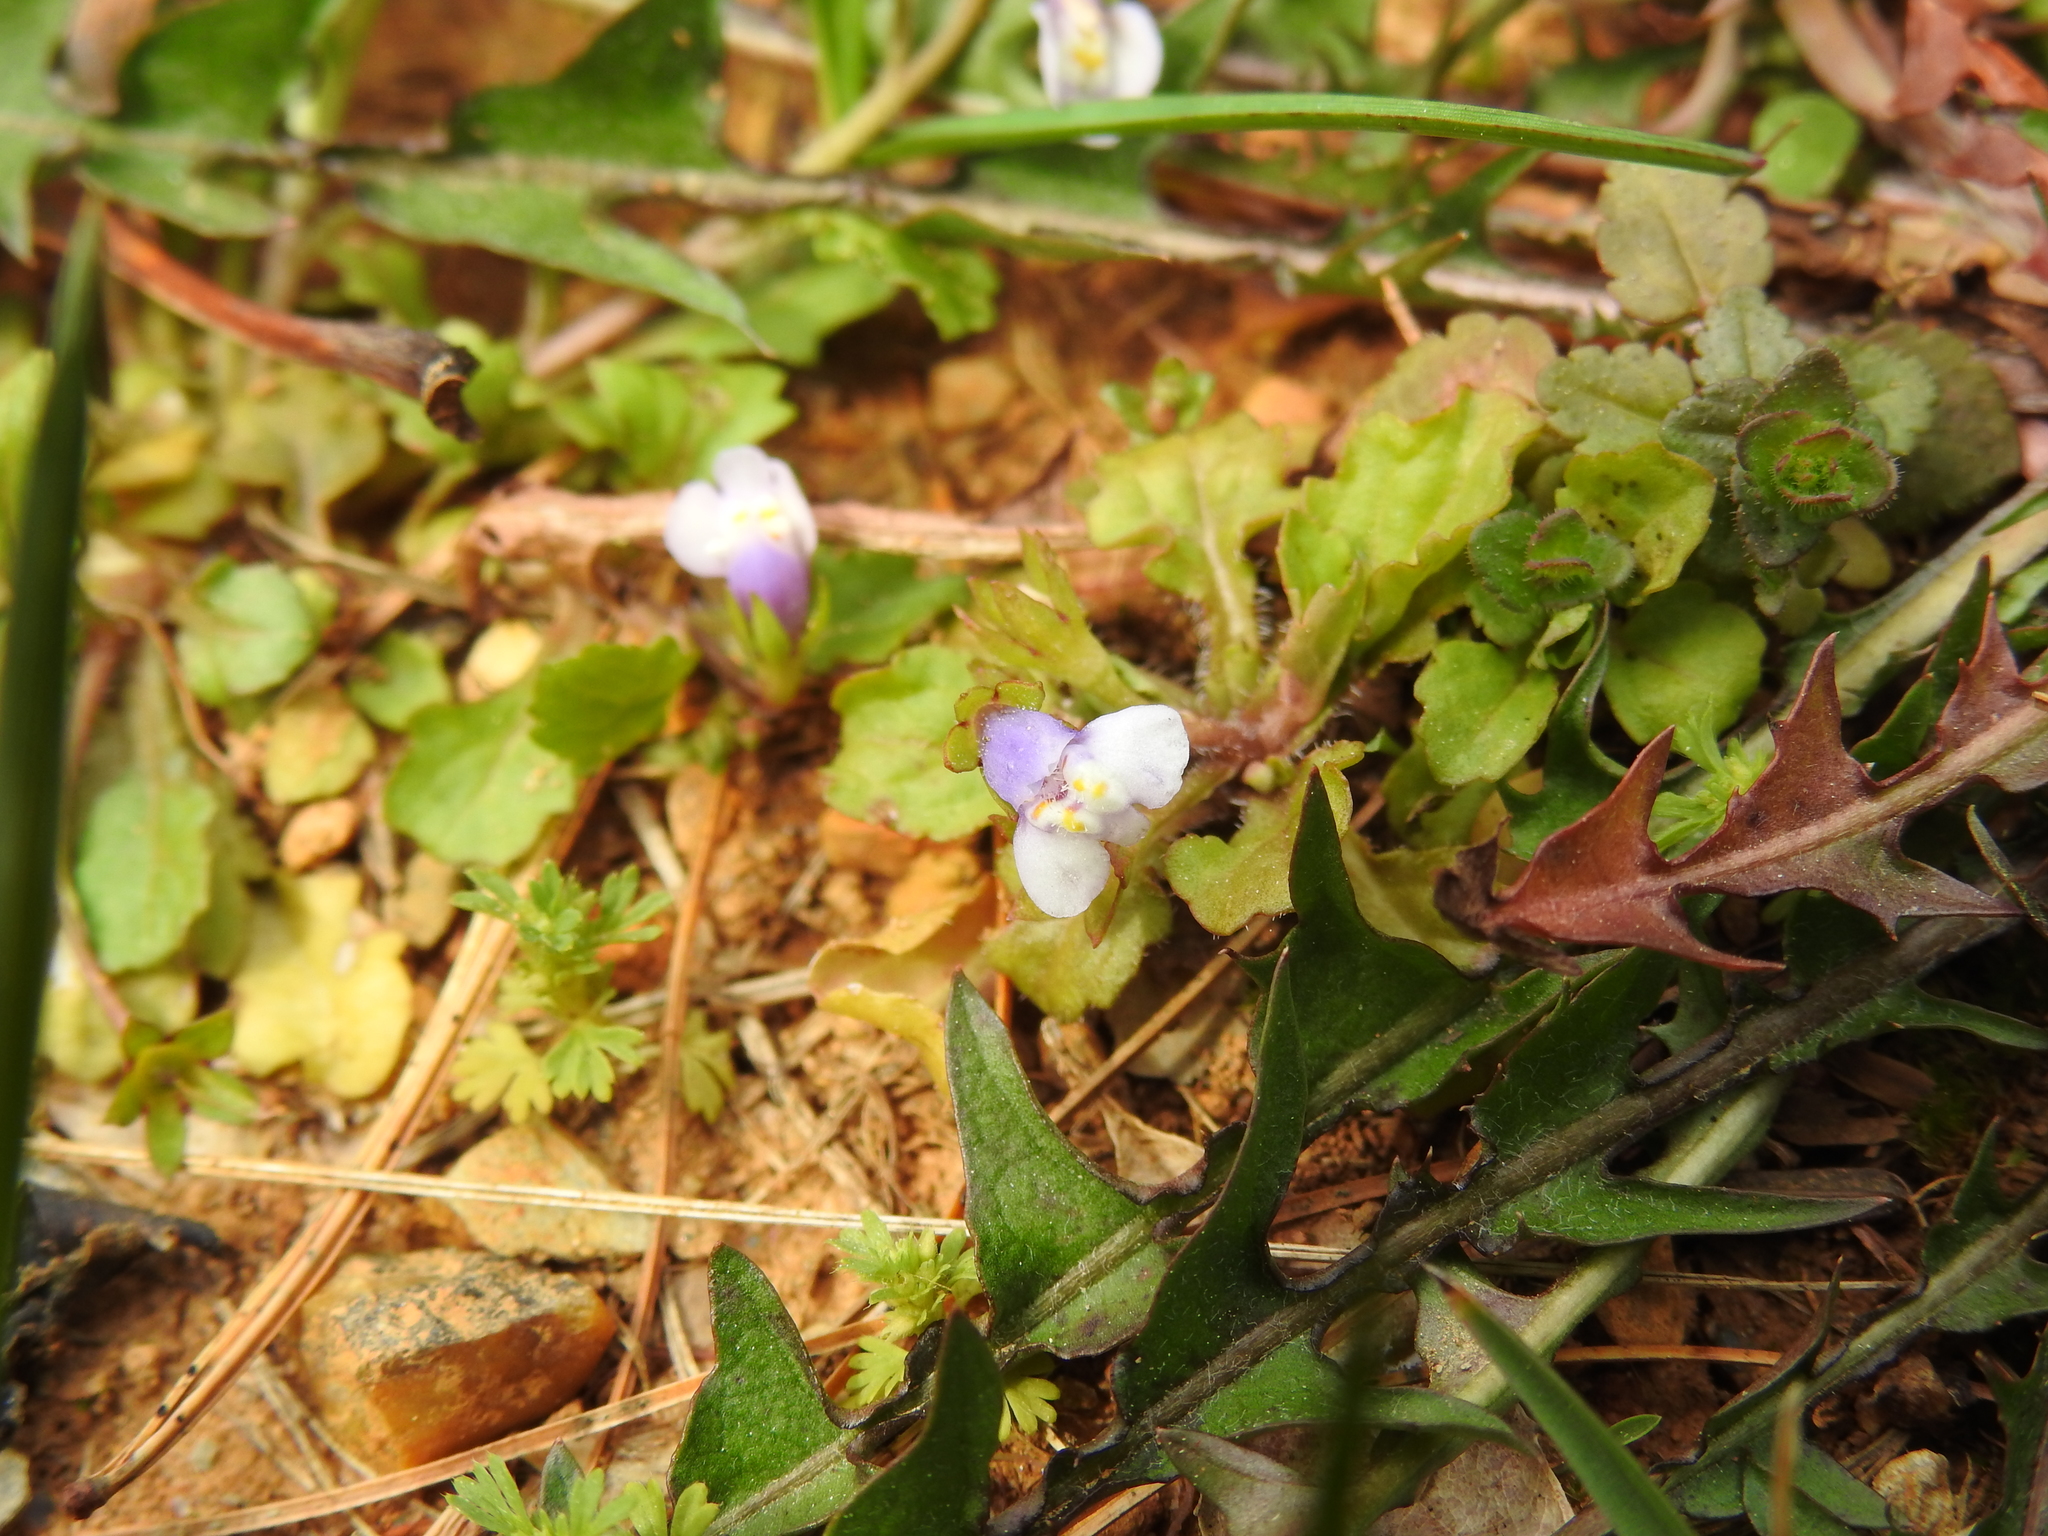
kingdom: Plantae
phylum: Tracheophyta
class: Magnoliopsida
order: Lamiales
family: Mazaceae
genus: Mazus
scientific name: Mazus pumilus
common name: Japanese mazus
